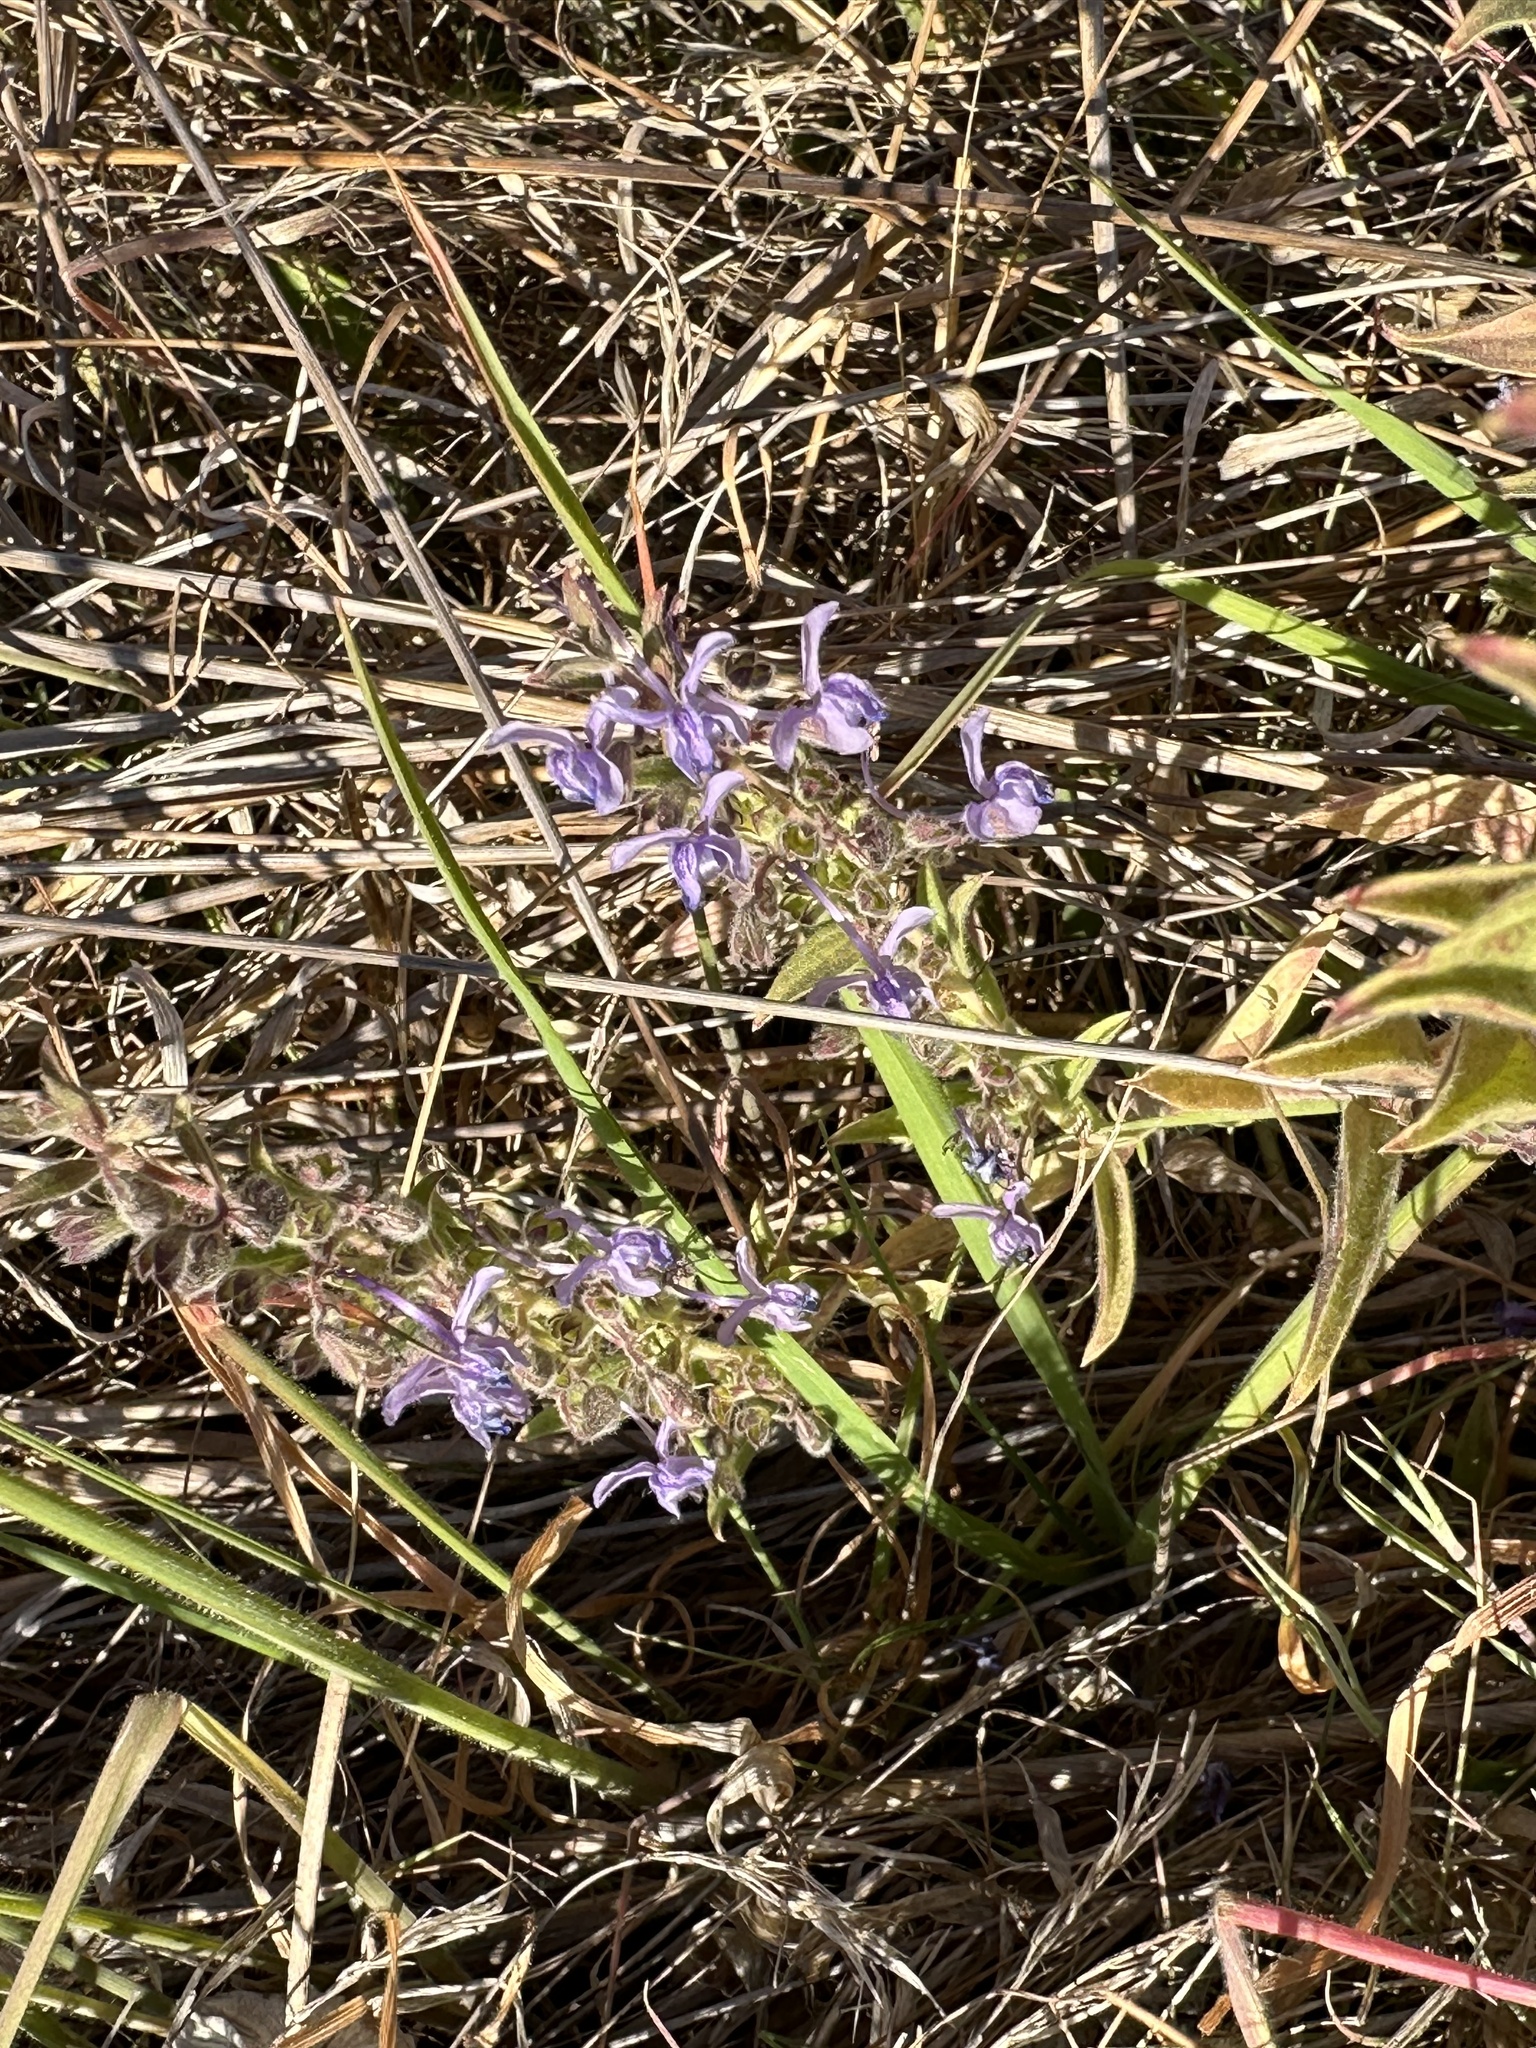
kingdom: Plantae
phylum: Tracheophyta
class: Magnoliopsida
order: Lamiales
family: Lamiaceae
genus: Trichostema
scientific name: Trichostema lanceolatum
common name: Vinegar-weed
